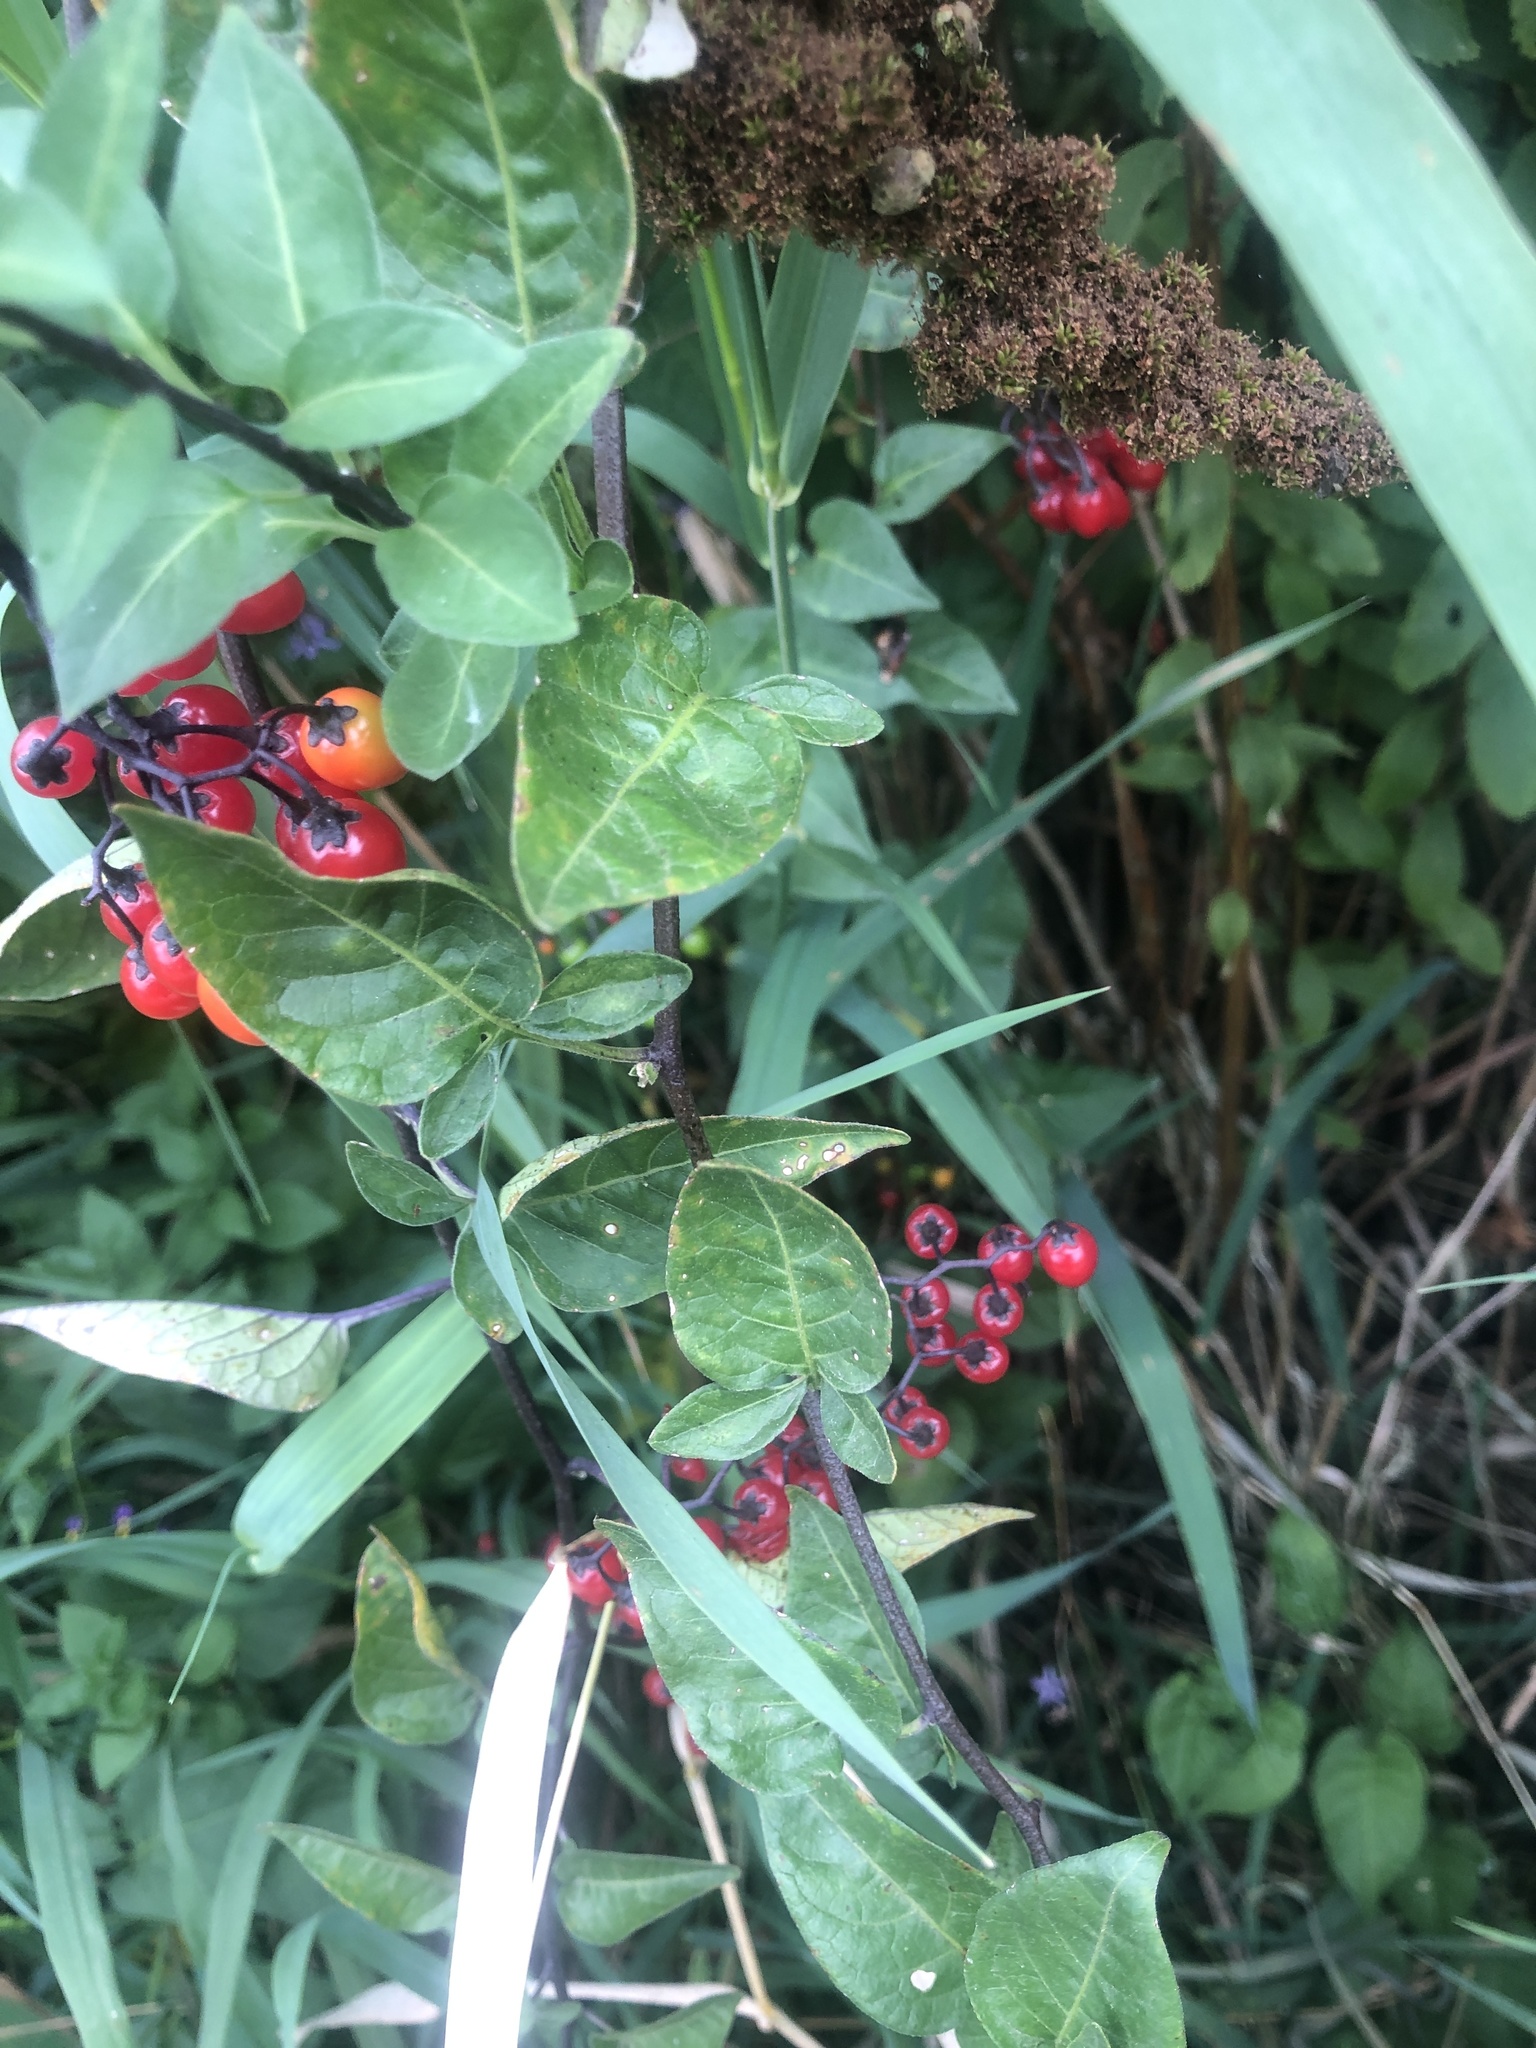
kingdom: Plantae
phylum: Tracheophyta
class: Magnoliopsida
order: Solanales
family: Solanaceae
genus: Solanum
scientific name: Solanum dulcamara
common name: Climbing nightshade
